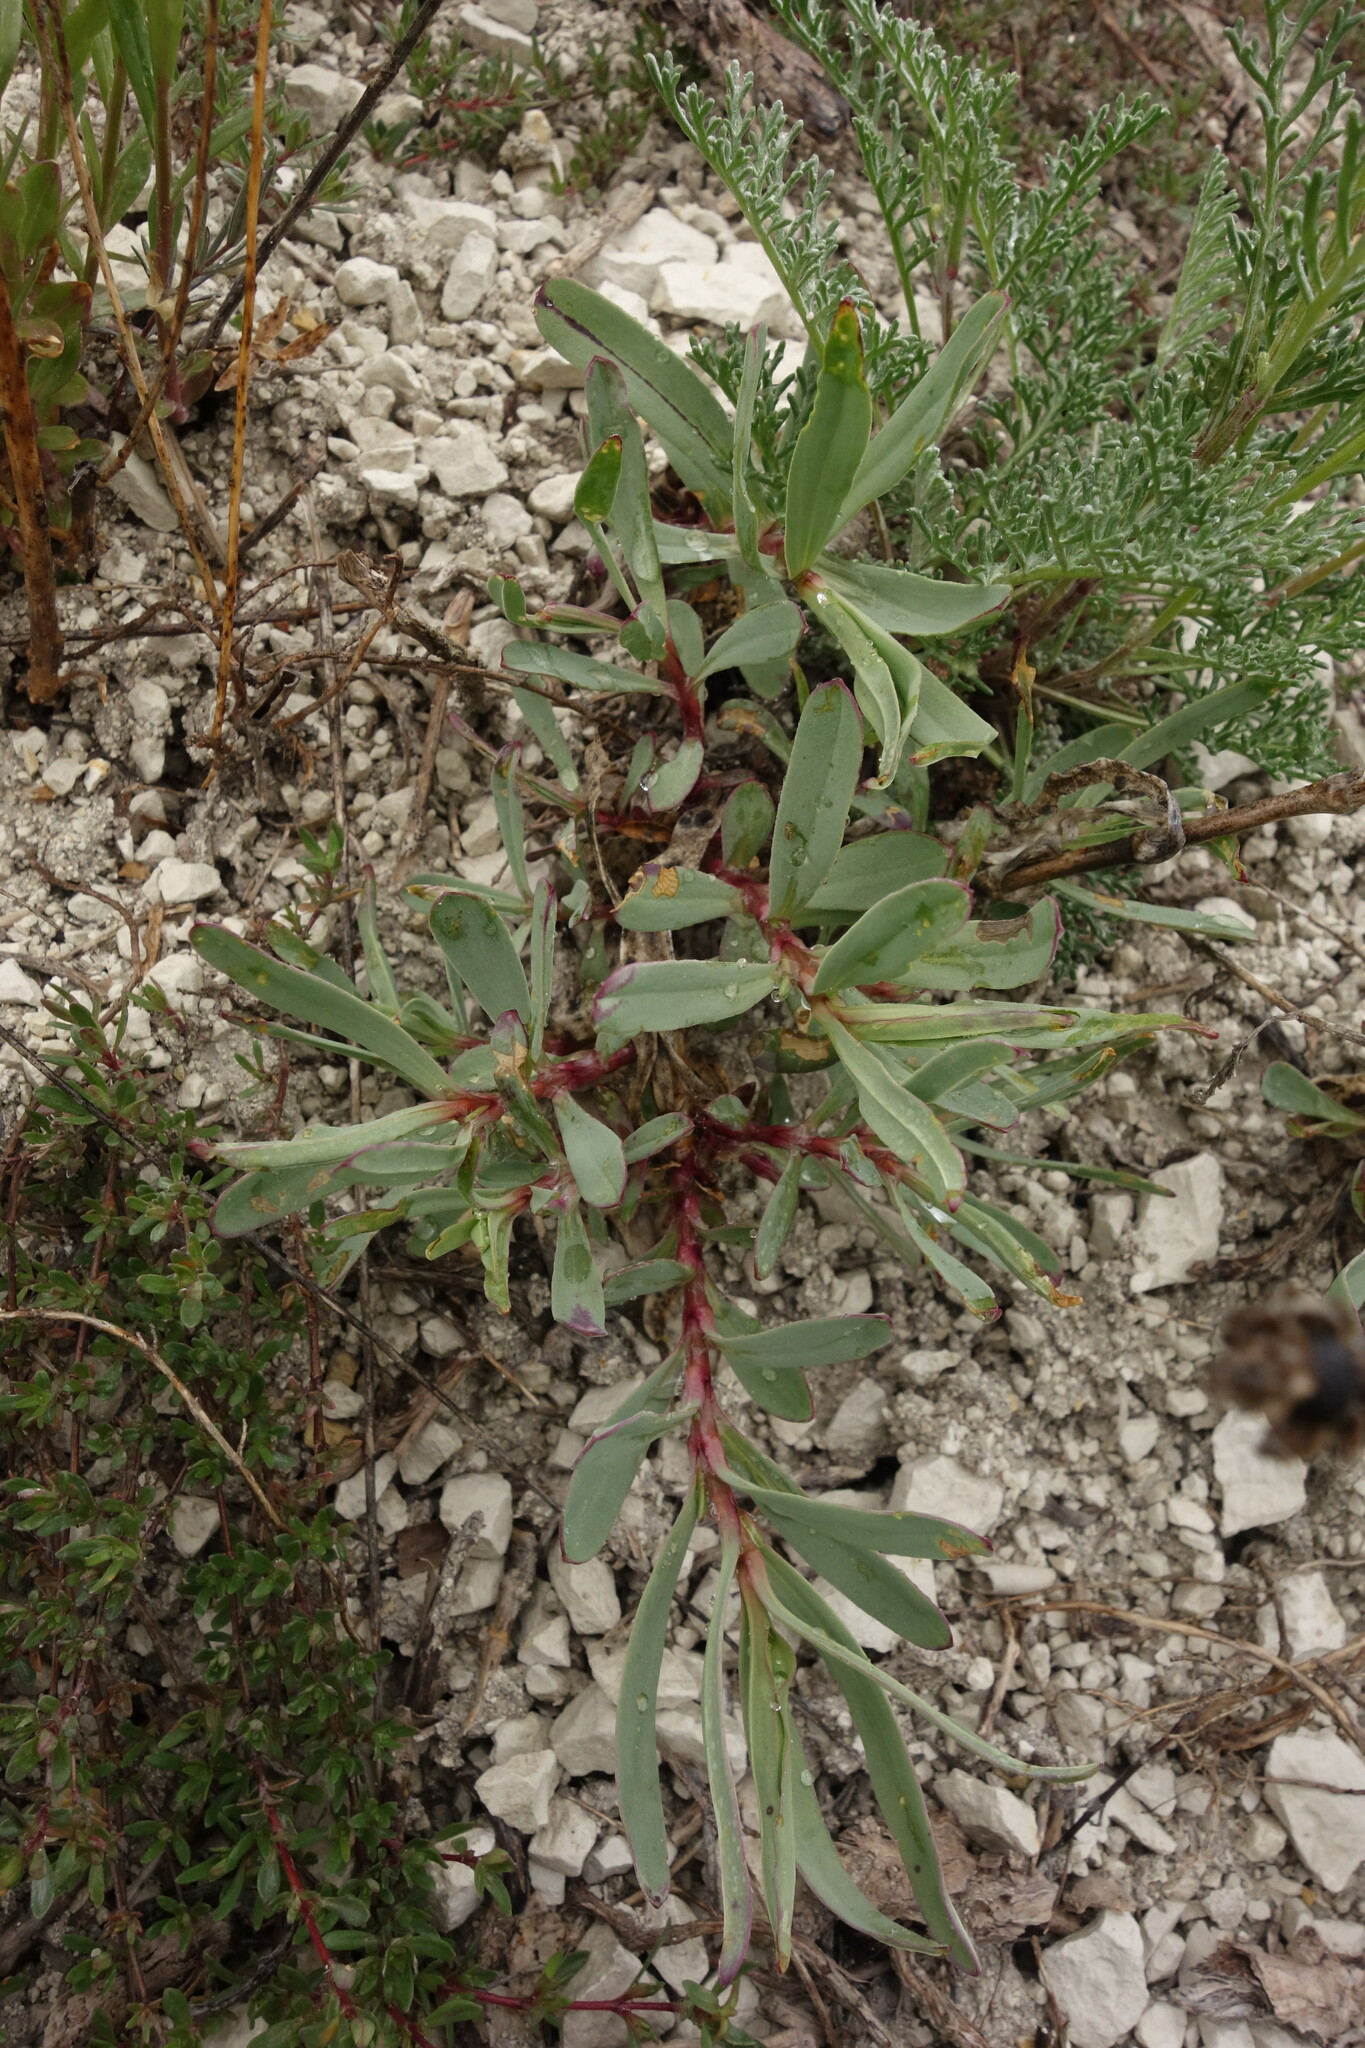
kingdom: Plantae
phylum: Tracheophyta
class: Magnoliopsida
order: Caryophyllales
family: Caryophyllaceae
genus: Gypsophila
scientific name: Gypsophila altissima
